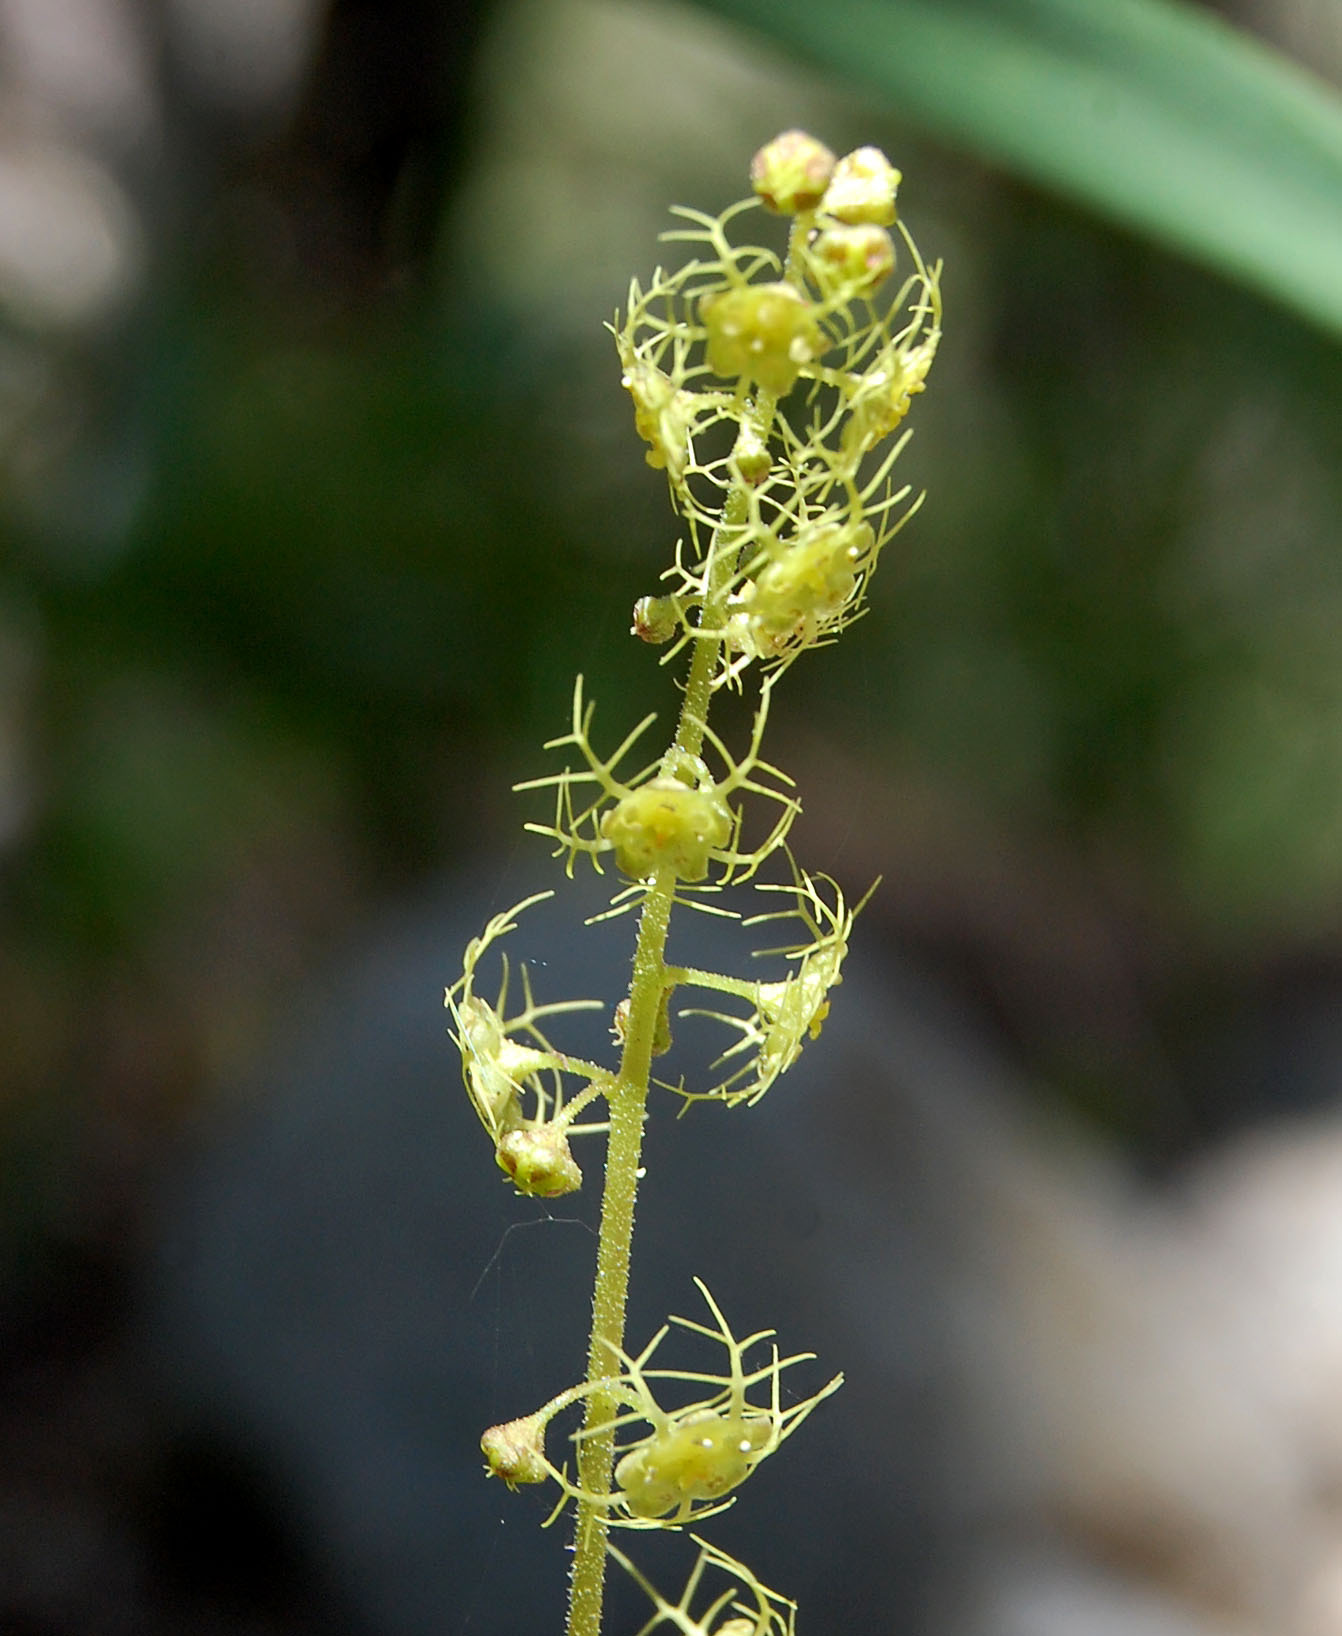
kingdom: Plantae
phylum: Tracheophyta
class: Magnoliopsida
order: Saxifragales
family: Saxifragaceae
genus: Brewerimitella
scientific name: Brewerimitella breweri
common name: Brewer's bishop's-cap
